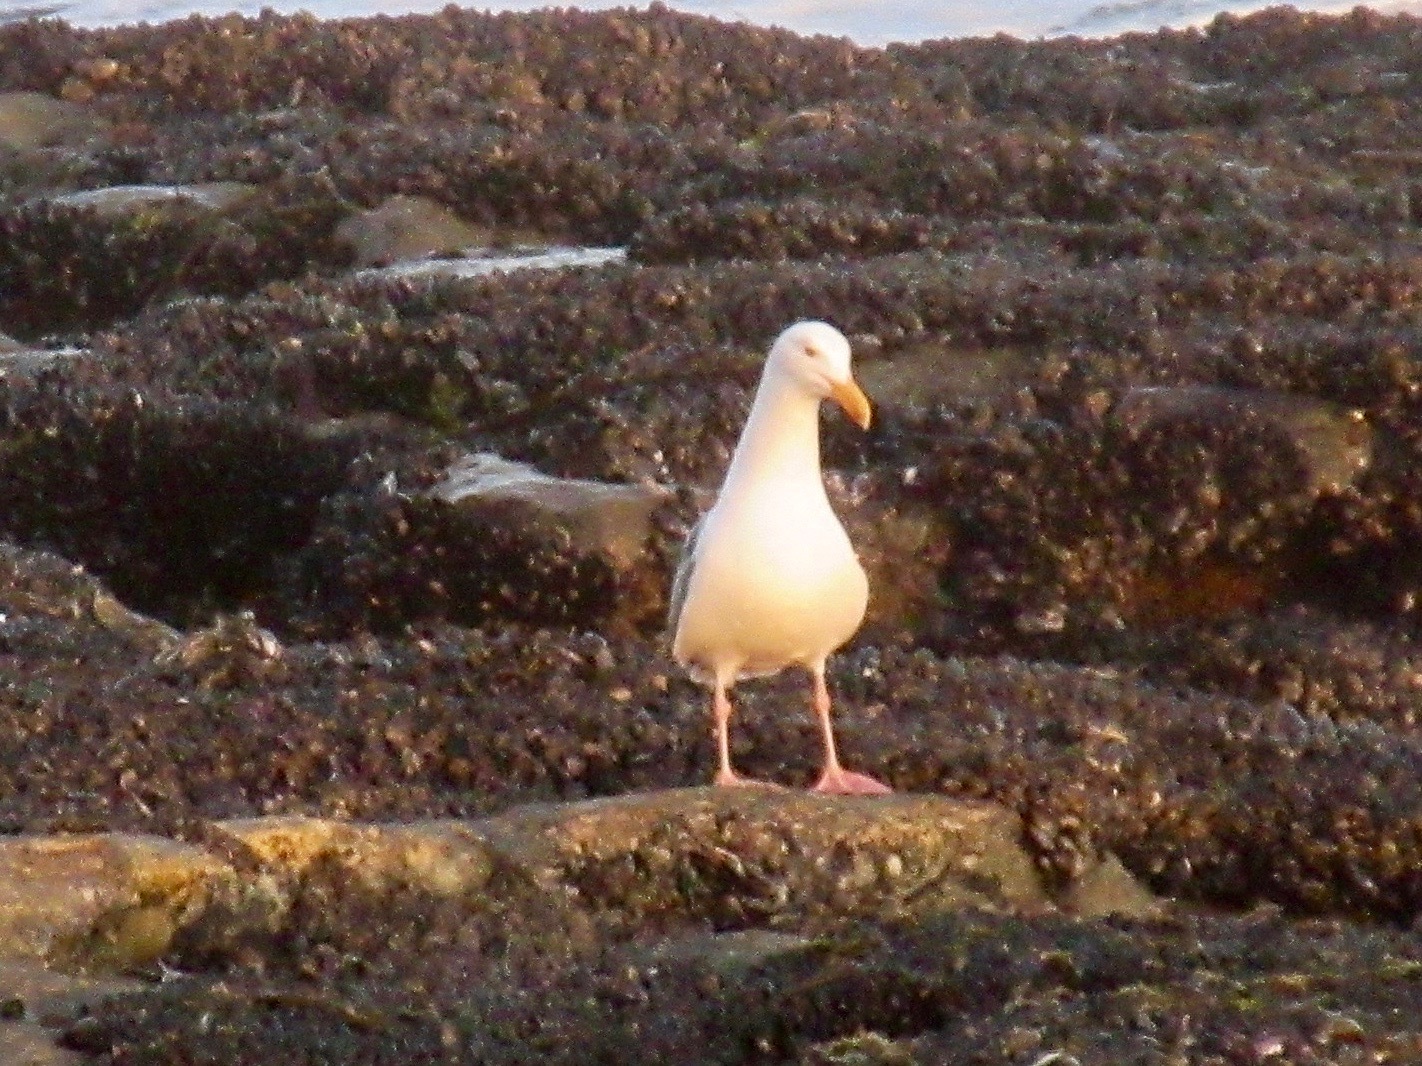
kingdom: Animalia
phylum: Chordata
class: Aves
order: Charadriiformes
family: Laridae
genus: Larus
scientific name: Larus occidentalis
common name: Western gull
